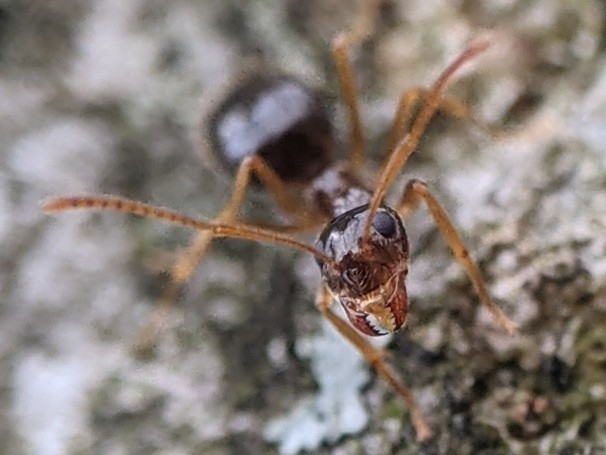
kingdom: Animalia
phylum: Arthropoda
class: Insecta
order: Hymenoptera
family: Formicidae
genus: Prenolepis
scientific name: Prenolepis imparis
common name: Small honey ant
